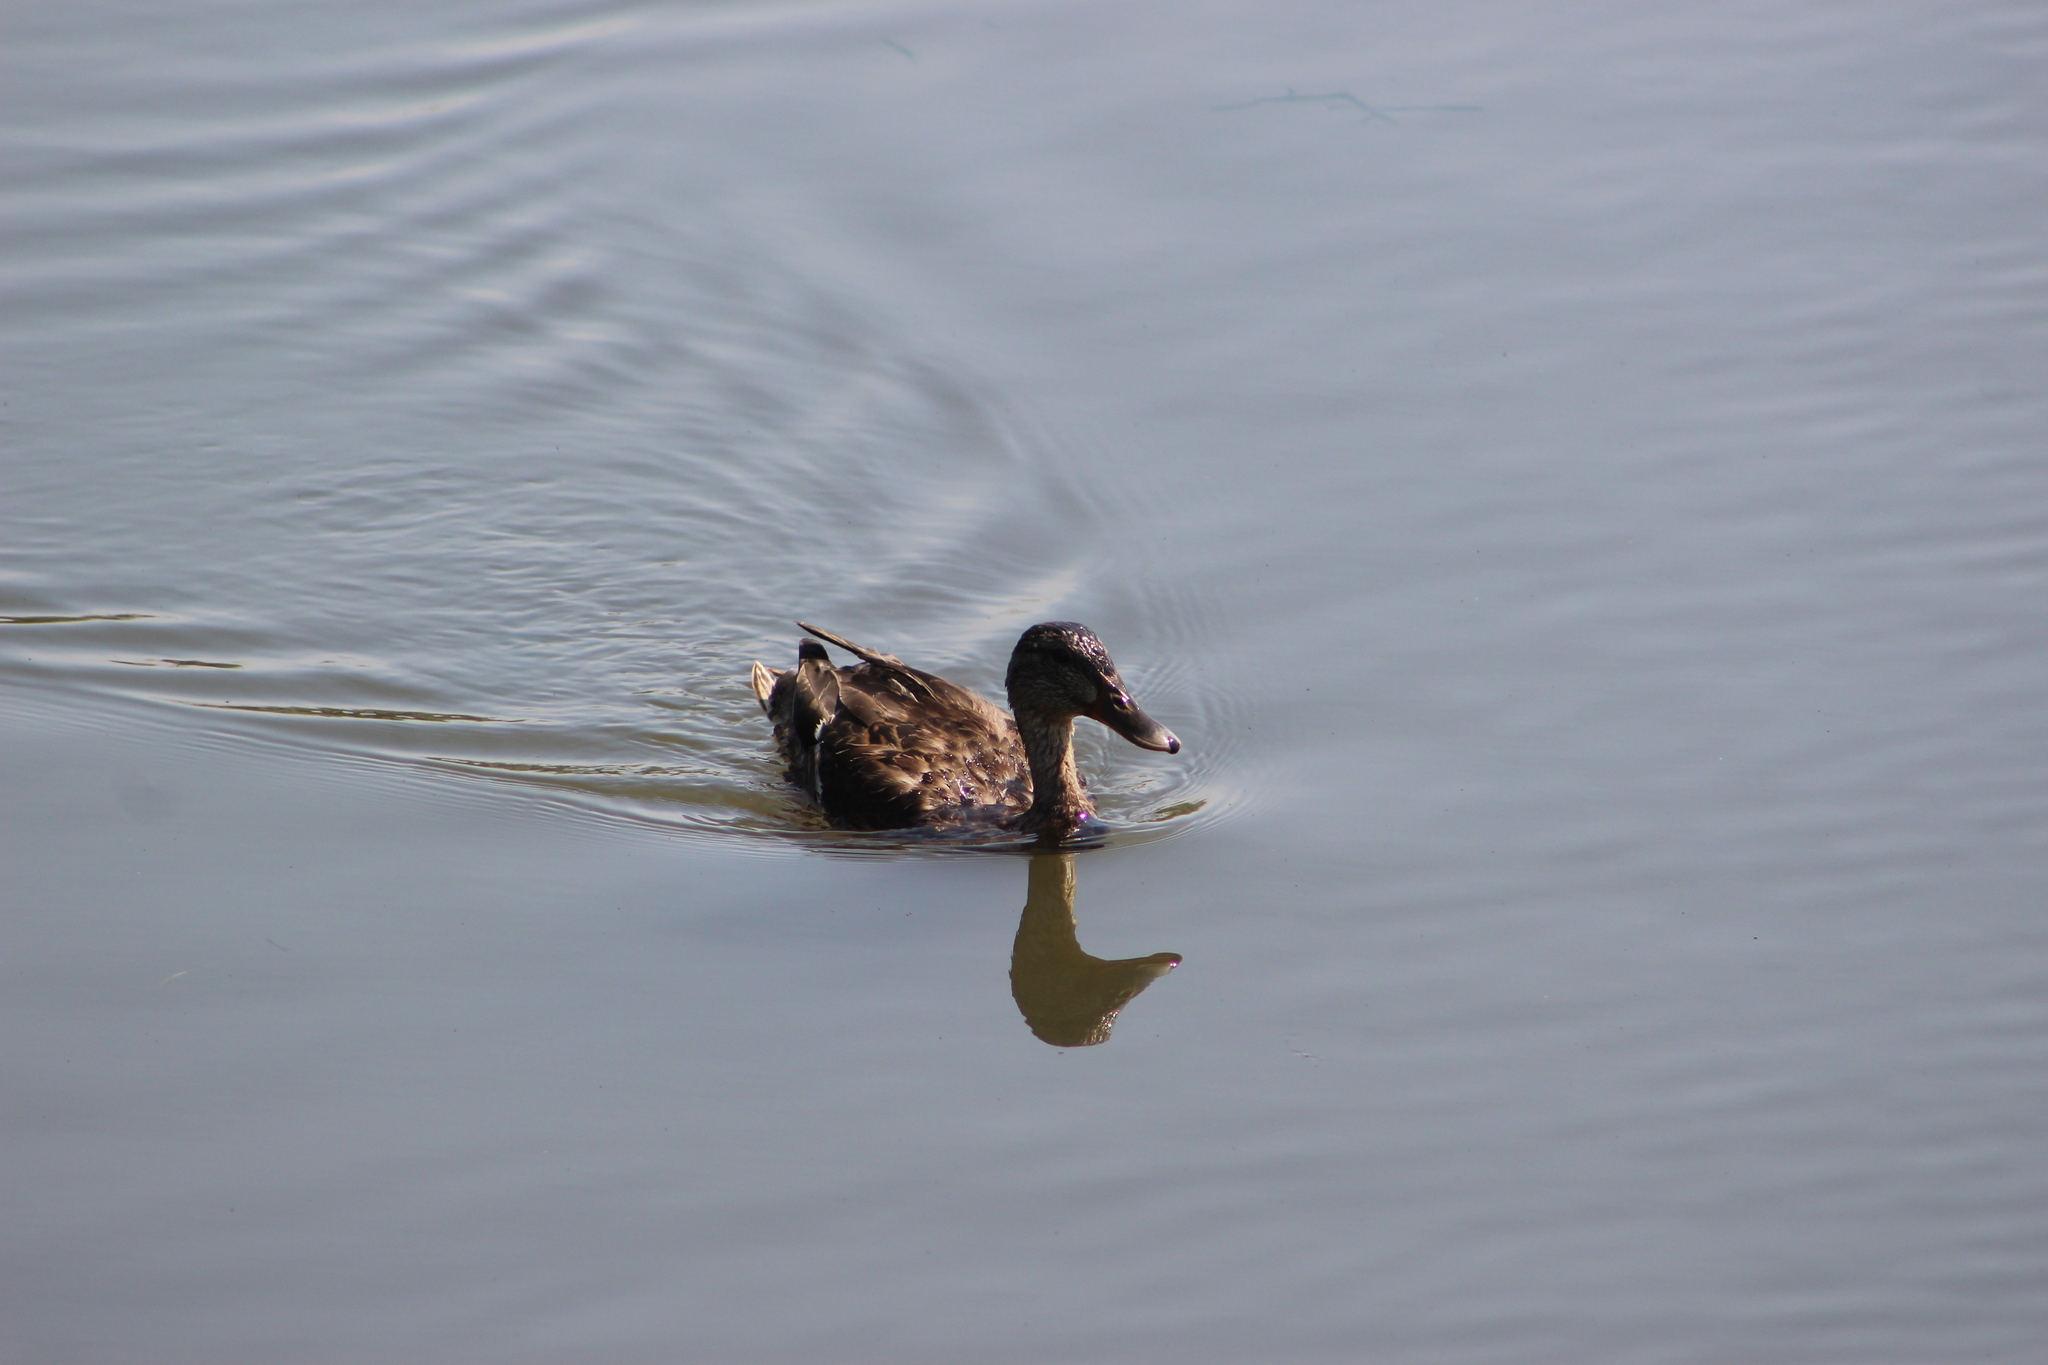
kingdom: Animalia
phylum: Chordata
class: Aves
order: Anseriformes
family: Anatidae
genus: Anas
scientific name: Anas platyrhynchos
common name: Mallard
